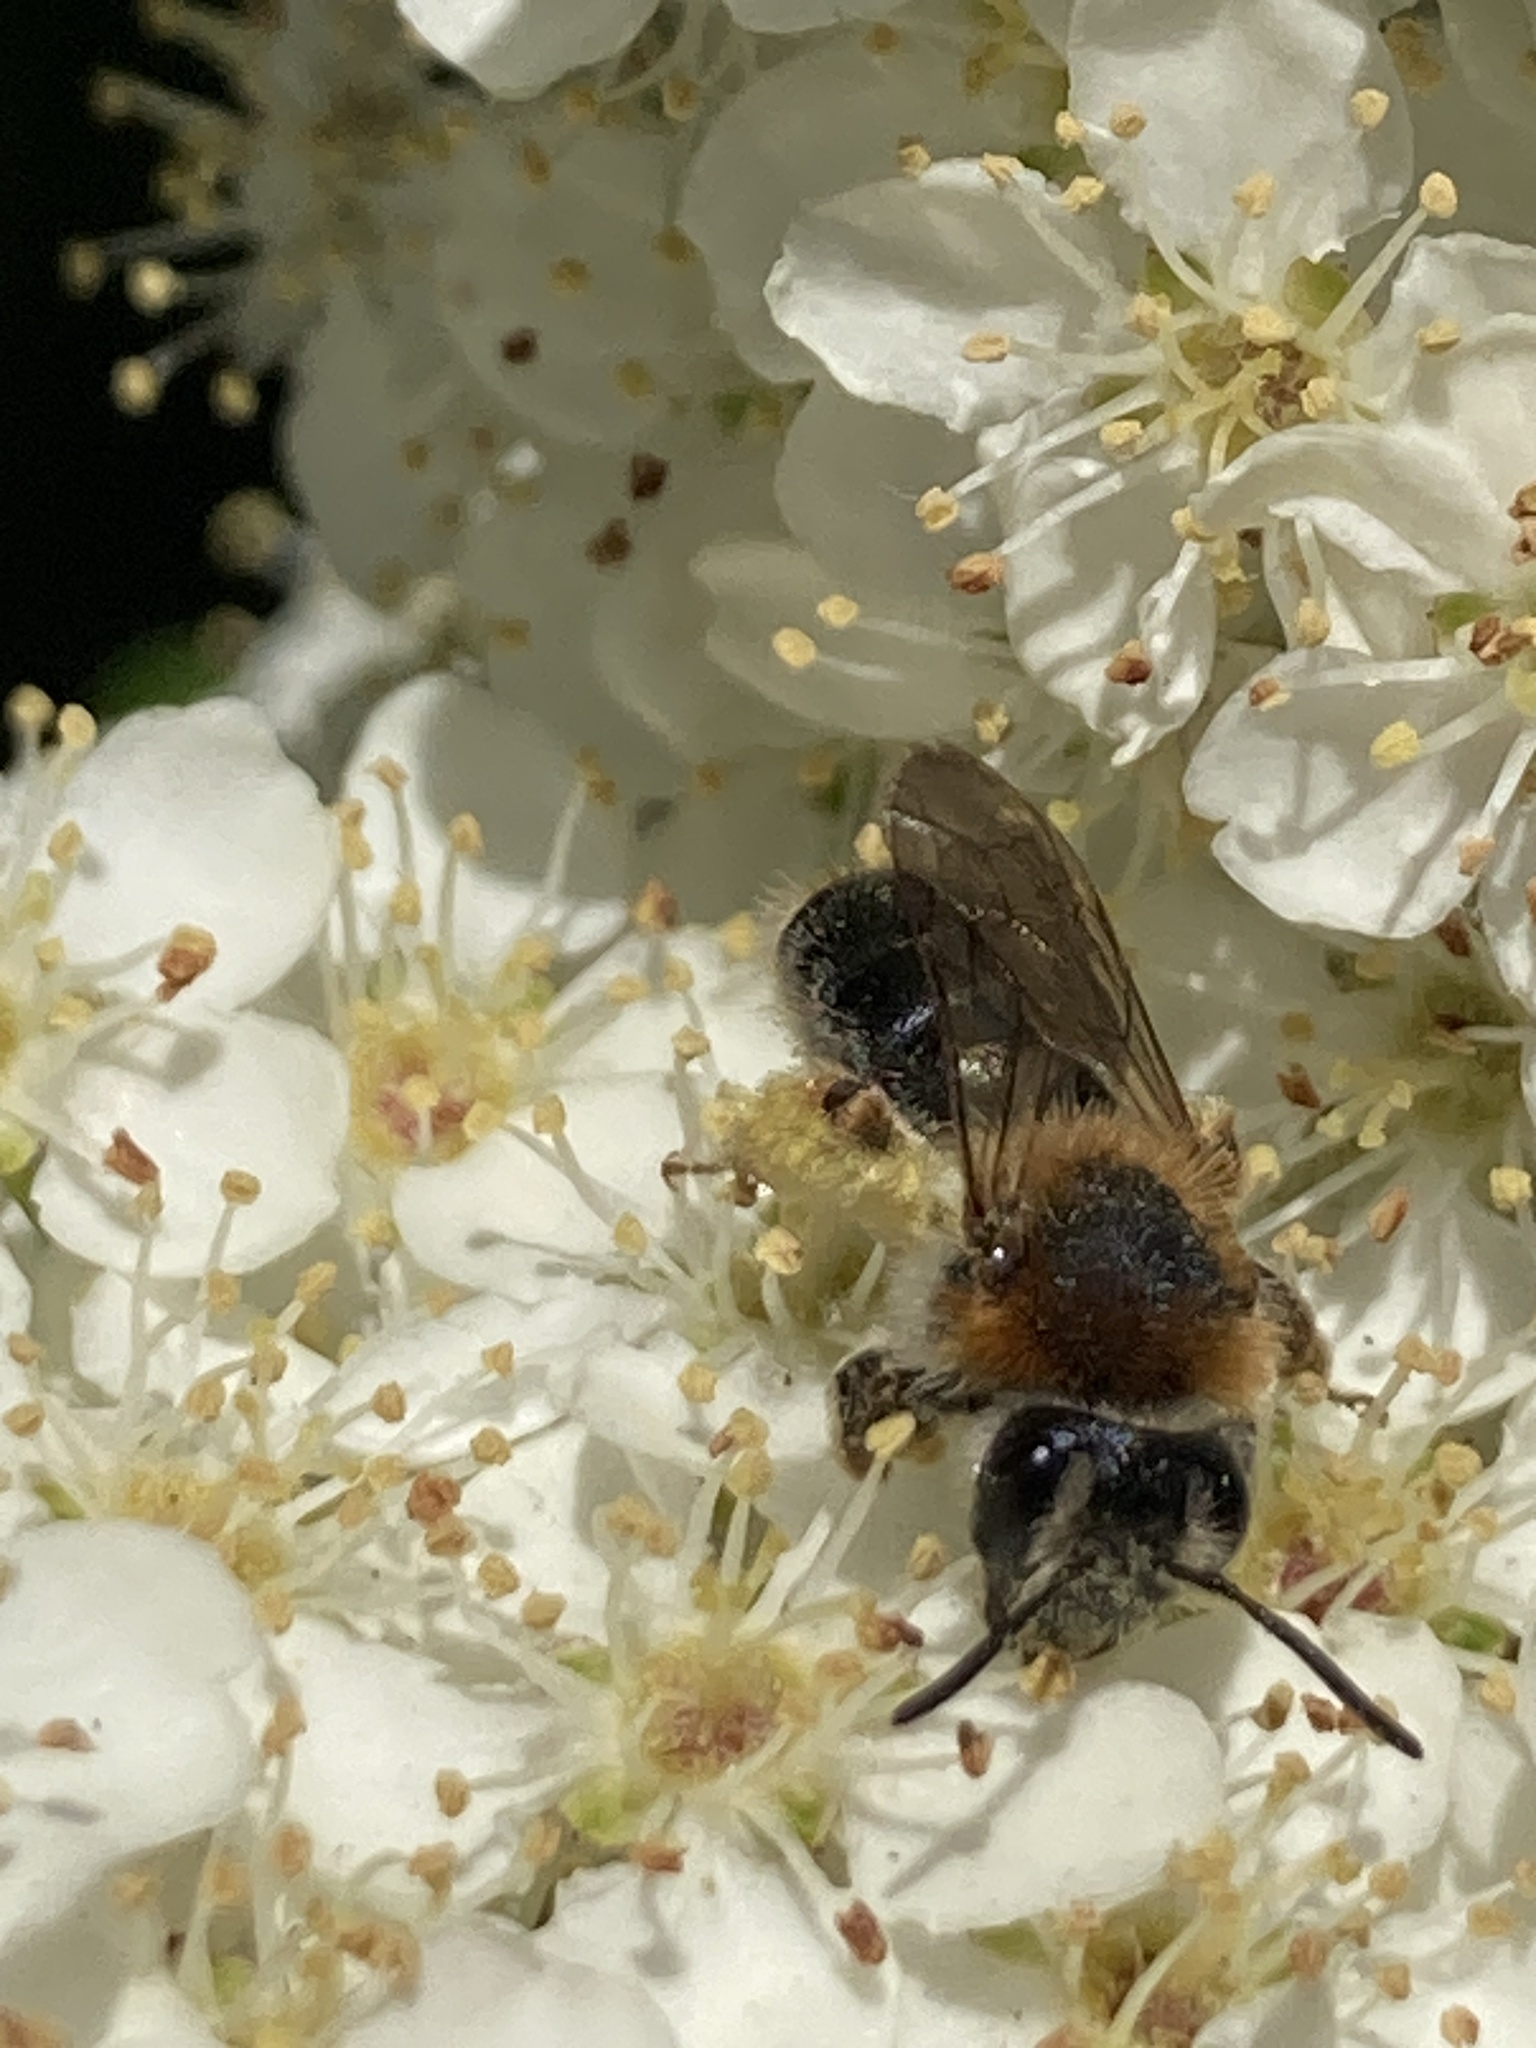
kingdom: Animalia
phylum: Arthropoda
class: Insecta
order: Hymenoptera
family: Andrenidae
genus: Andrena
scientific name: Andrena haemorrhoa
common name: Early mining bee
